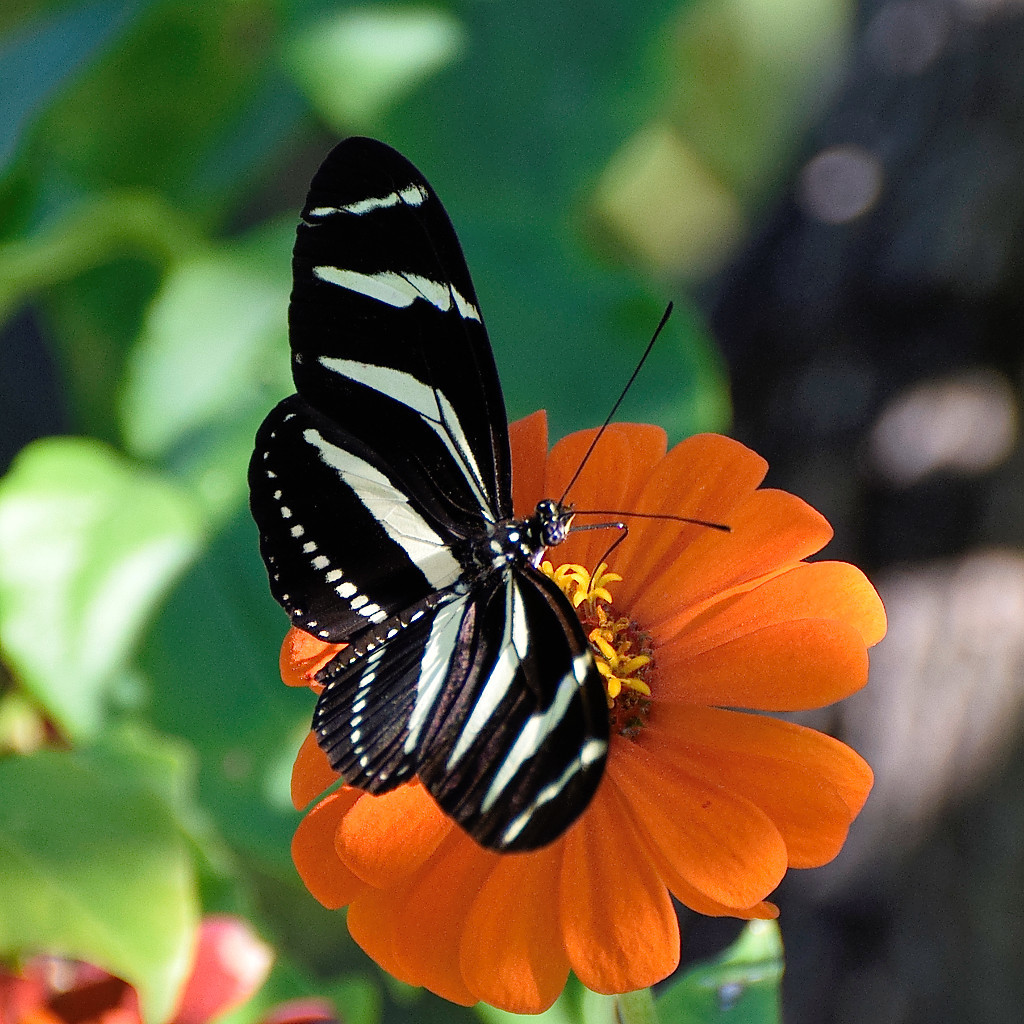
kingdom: Animalia
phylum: Arthropoda
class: Insecta
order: Lepidoptera
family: Nymphalidae
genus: Heliconius
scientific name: Heliconius charithonia
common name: Zebra long wing
